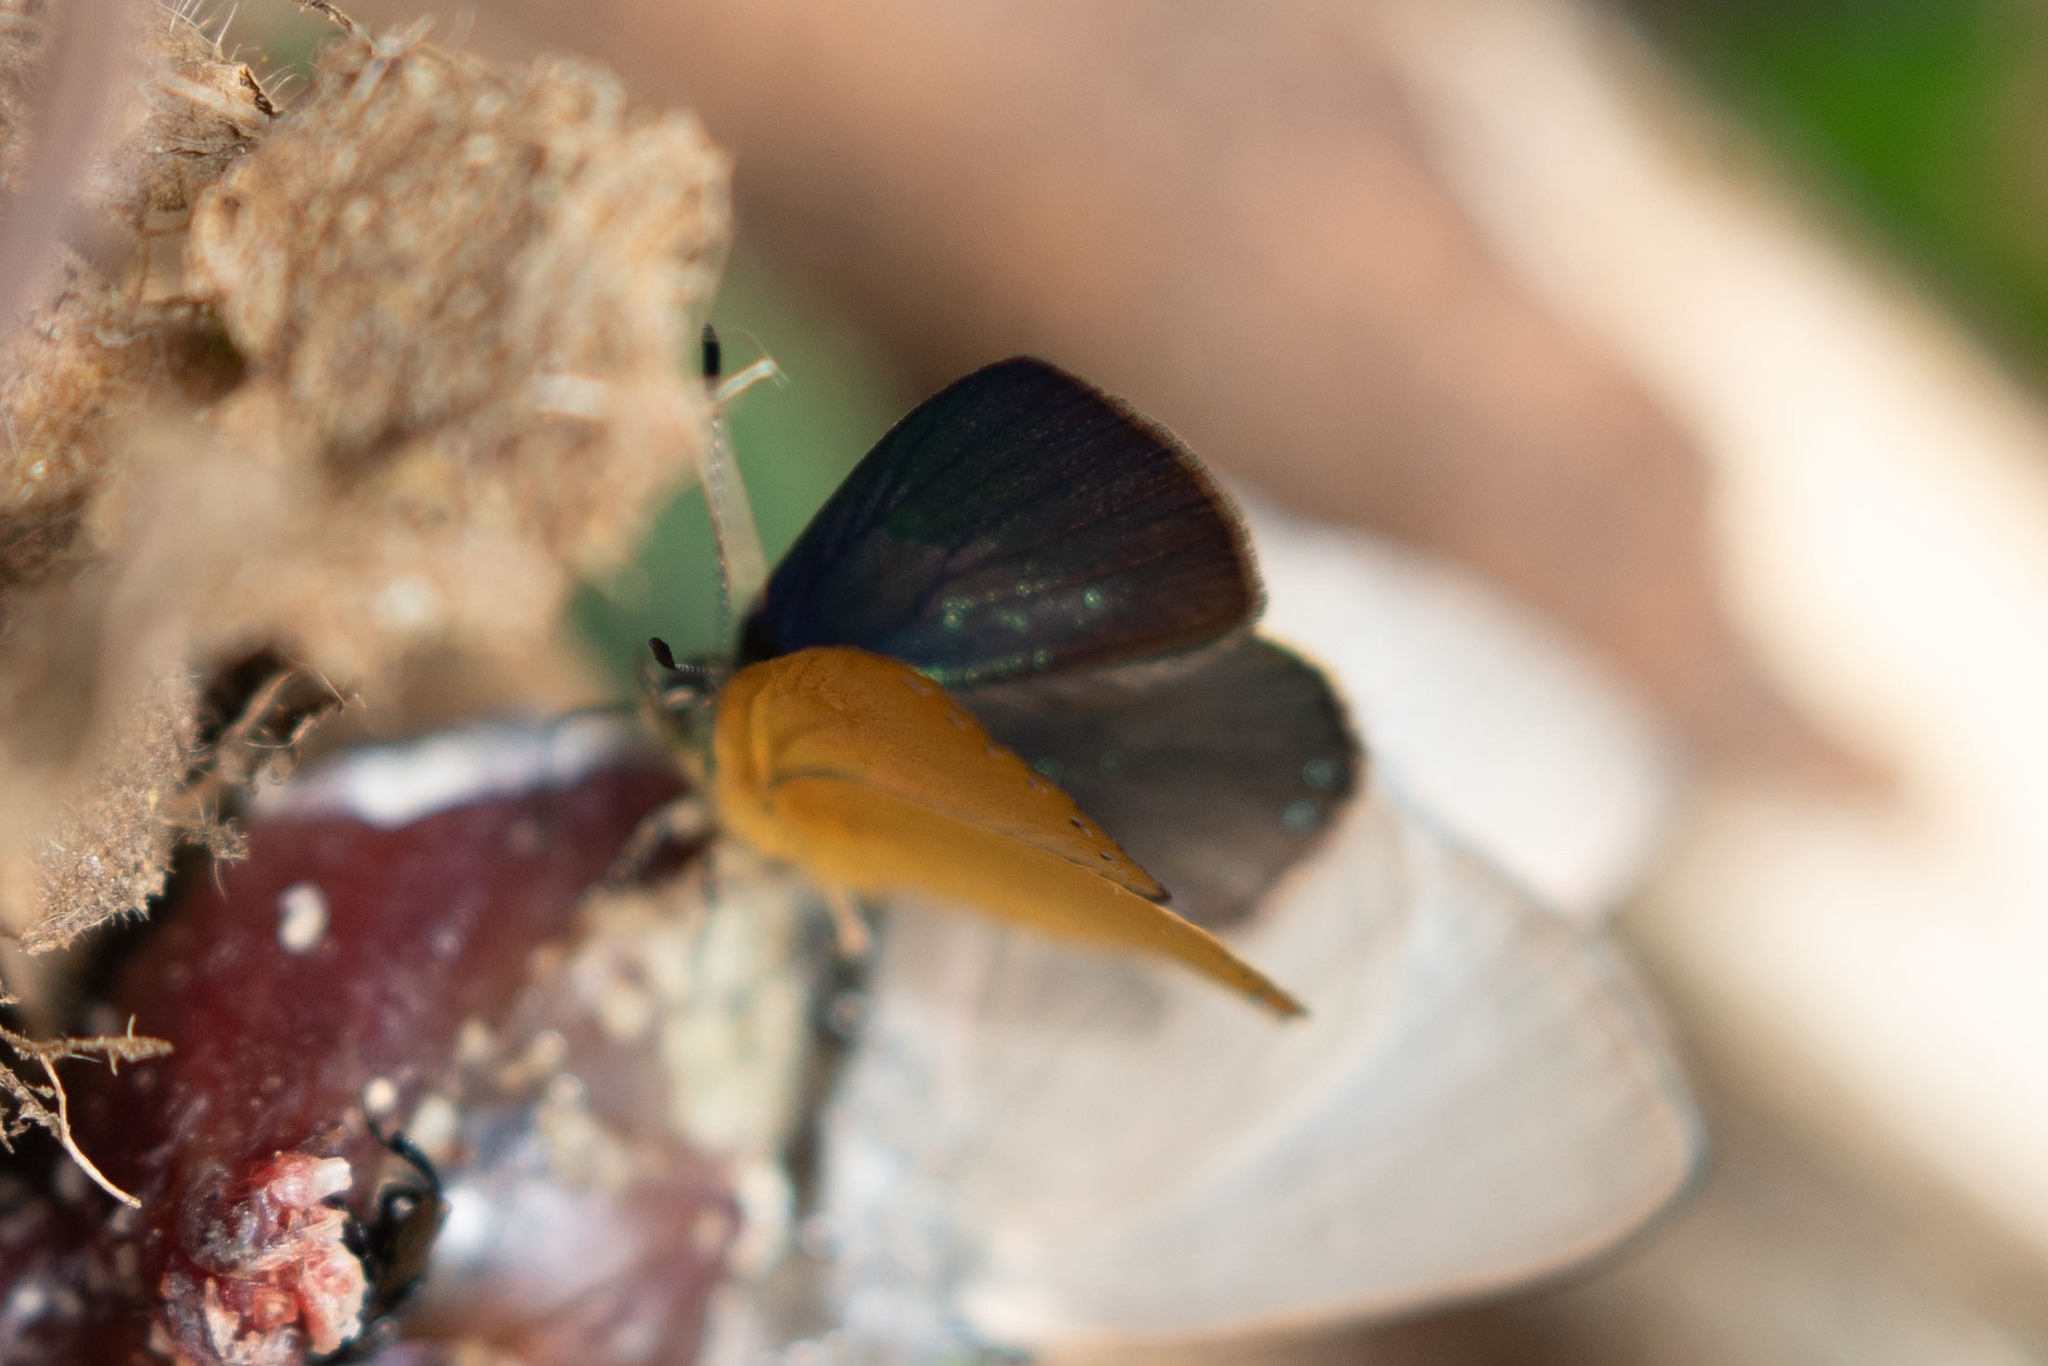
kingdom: Animalia
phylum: Arthropoda
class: Insecta
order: Lepidoptera
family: Lycaenidae
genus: Titea
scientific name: Titea sublutea
